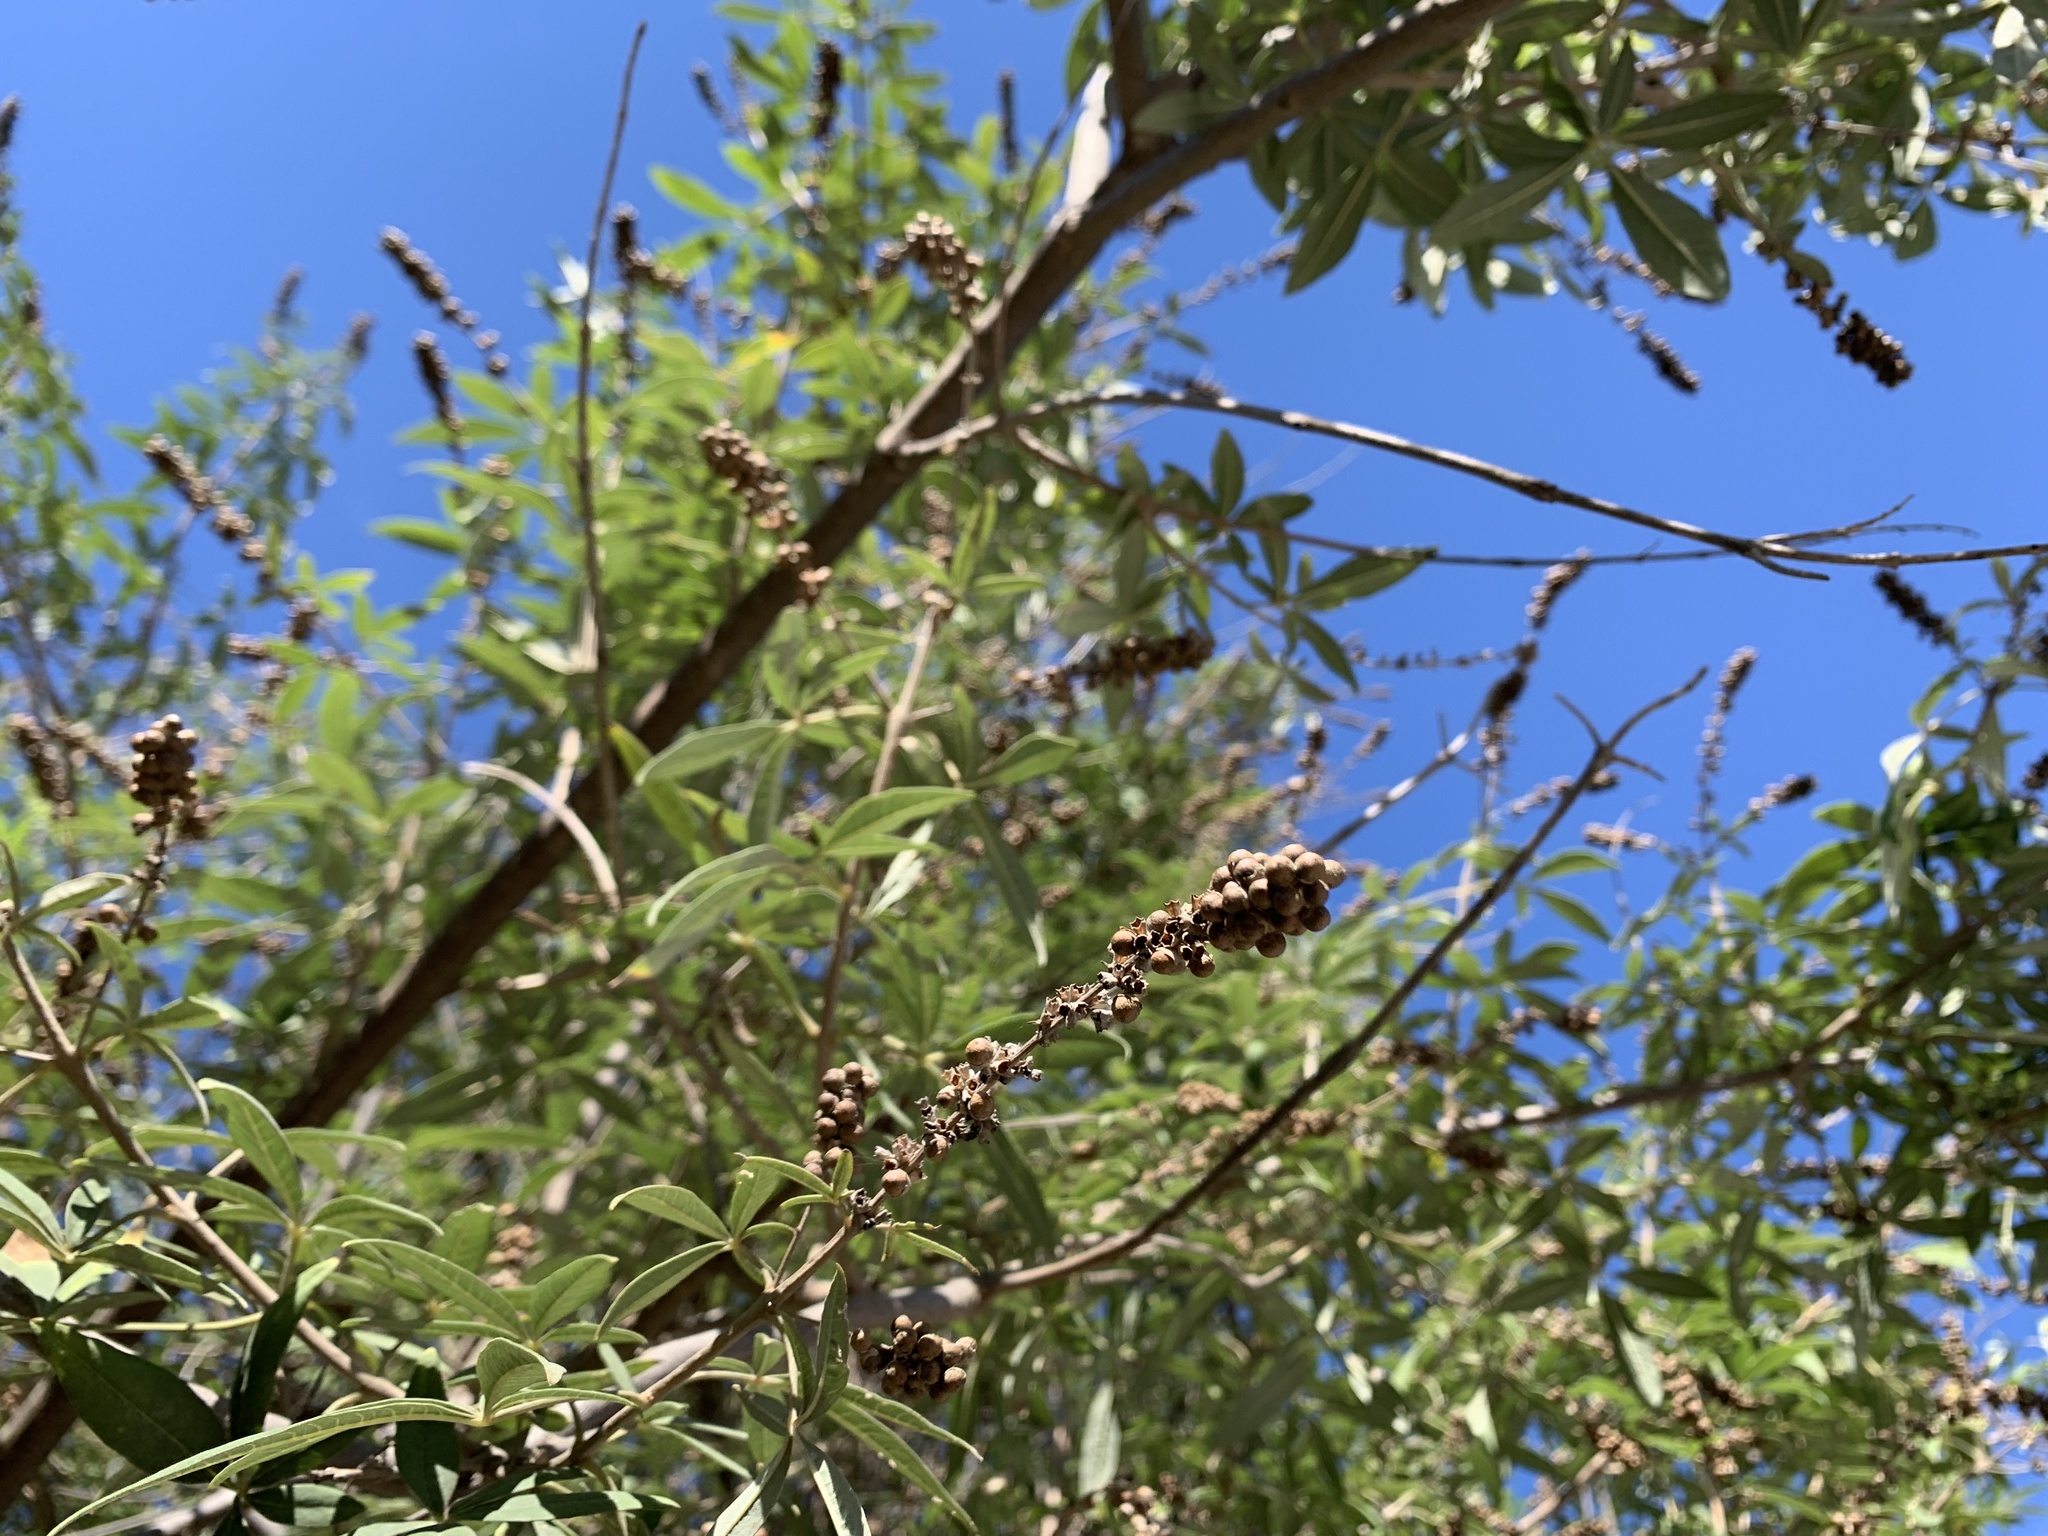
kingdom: Plantae
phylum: Tracheophyta
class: Magnoliopsida
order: Lamiales
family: Lamiaceae
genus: Vitex
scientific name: Vitex agnus-castus
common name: Chasteberry
